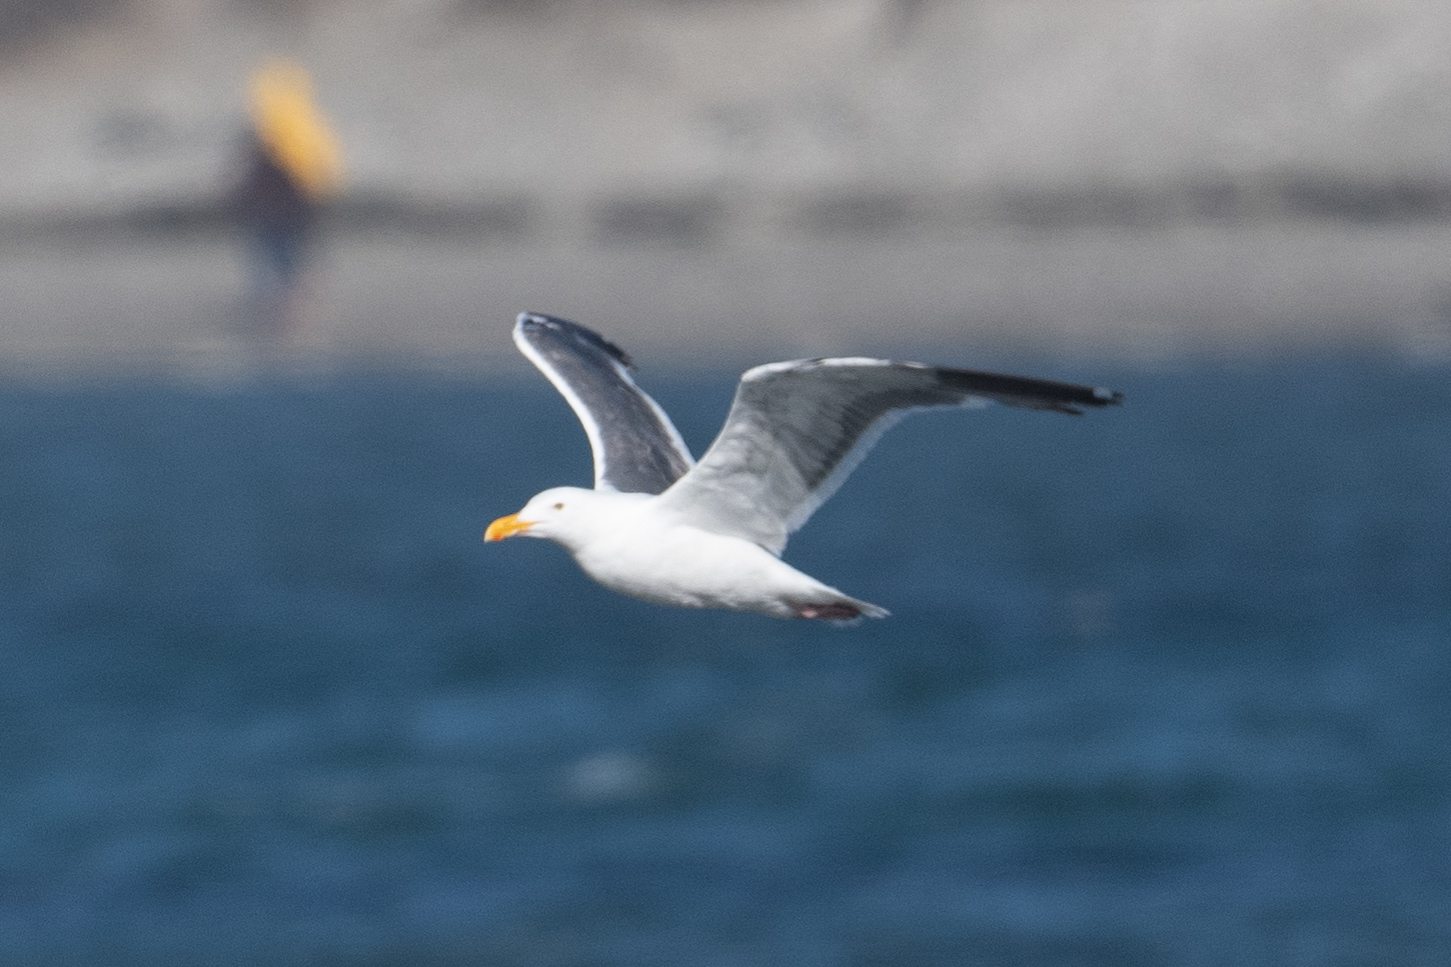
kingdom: Animalia
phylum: Chordata
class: Aves
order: Charadriiformes
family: Laridae
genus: Larus
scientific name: Larus occidentalis
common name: Western gull
